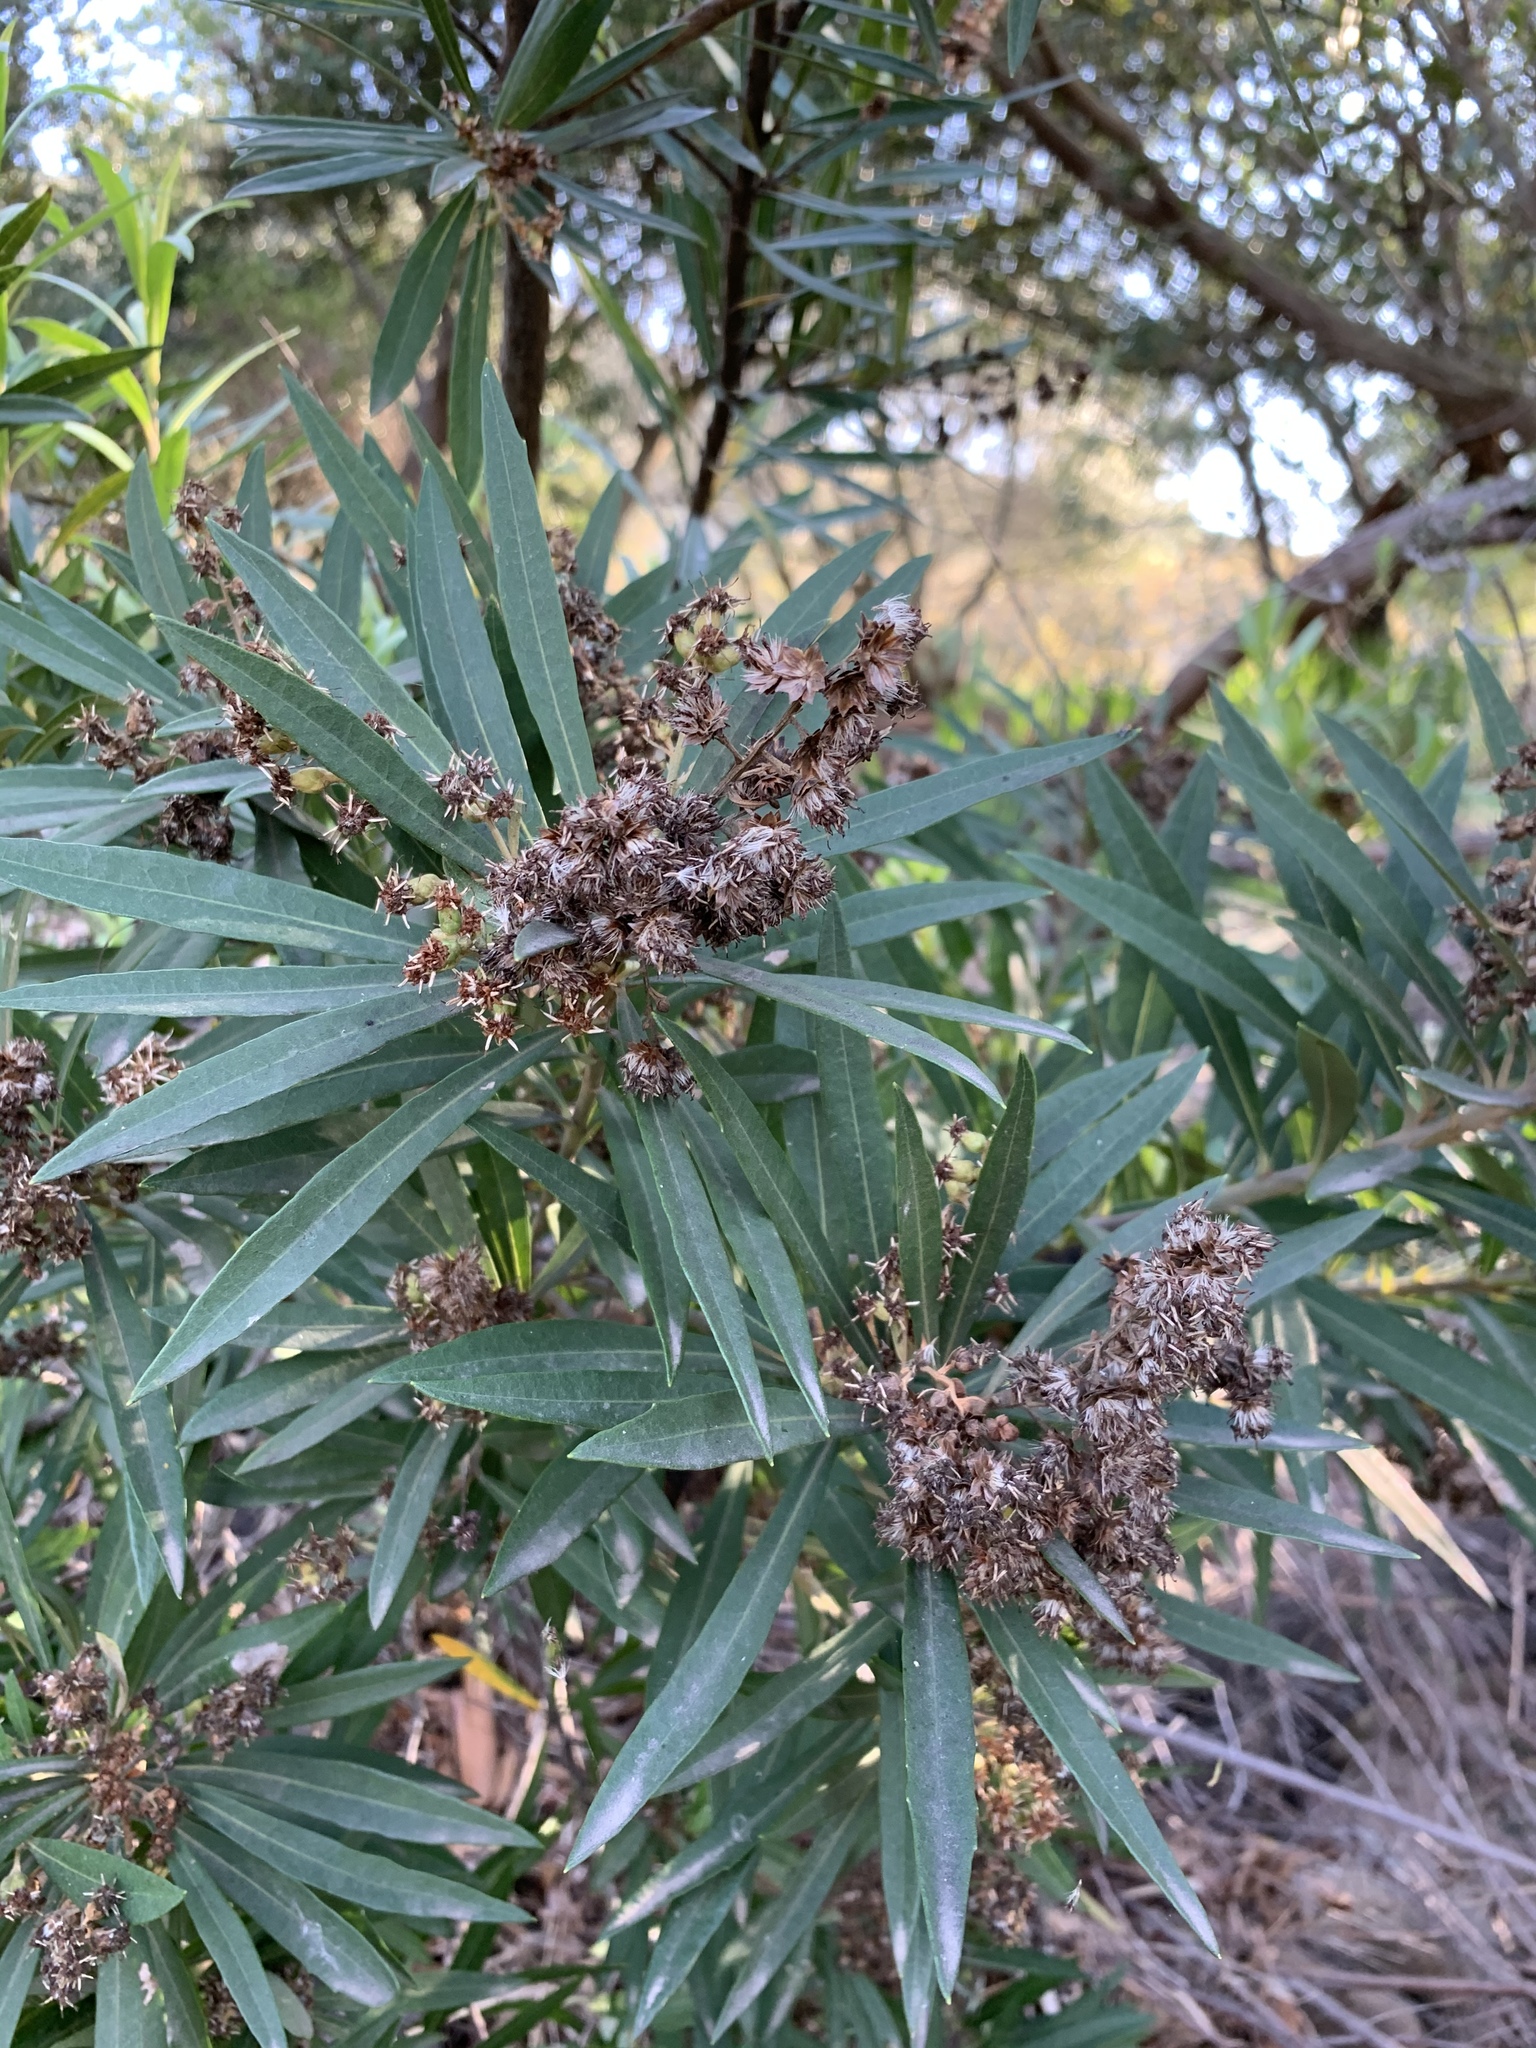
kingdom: Plantae
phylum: Tracheophyta
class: Magnoliopsida
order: Asterales
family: Asteraceae
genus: Brachylaena
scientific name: Brachylaena neriifolia
